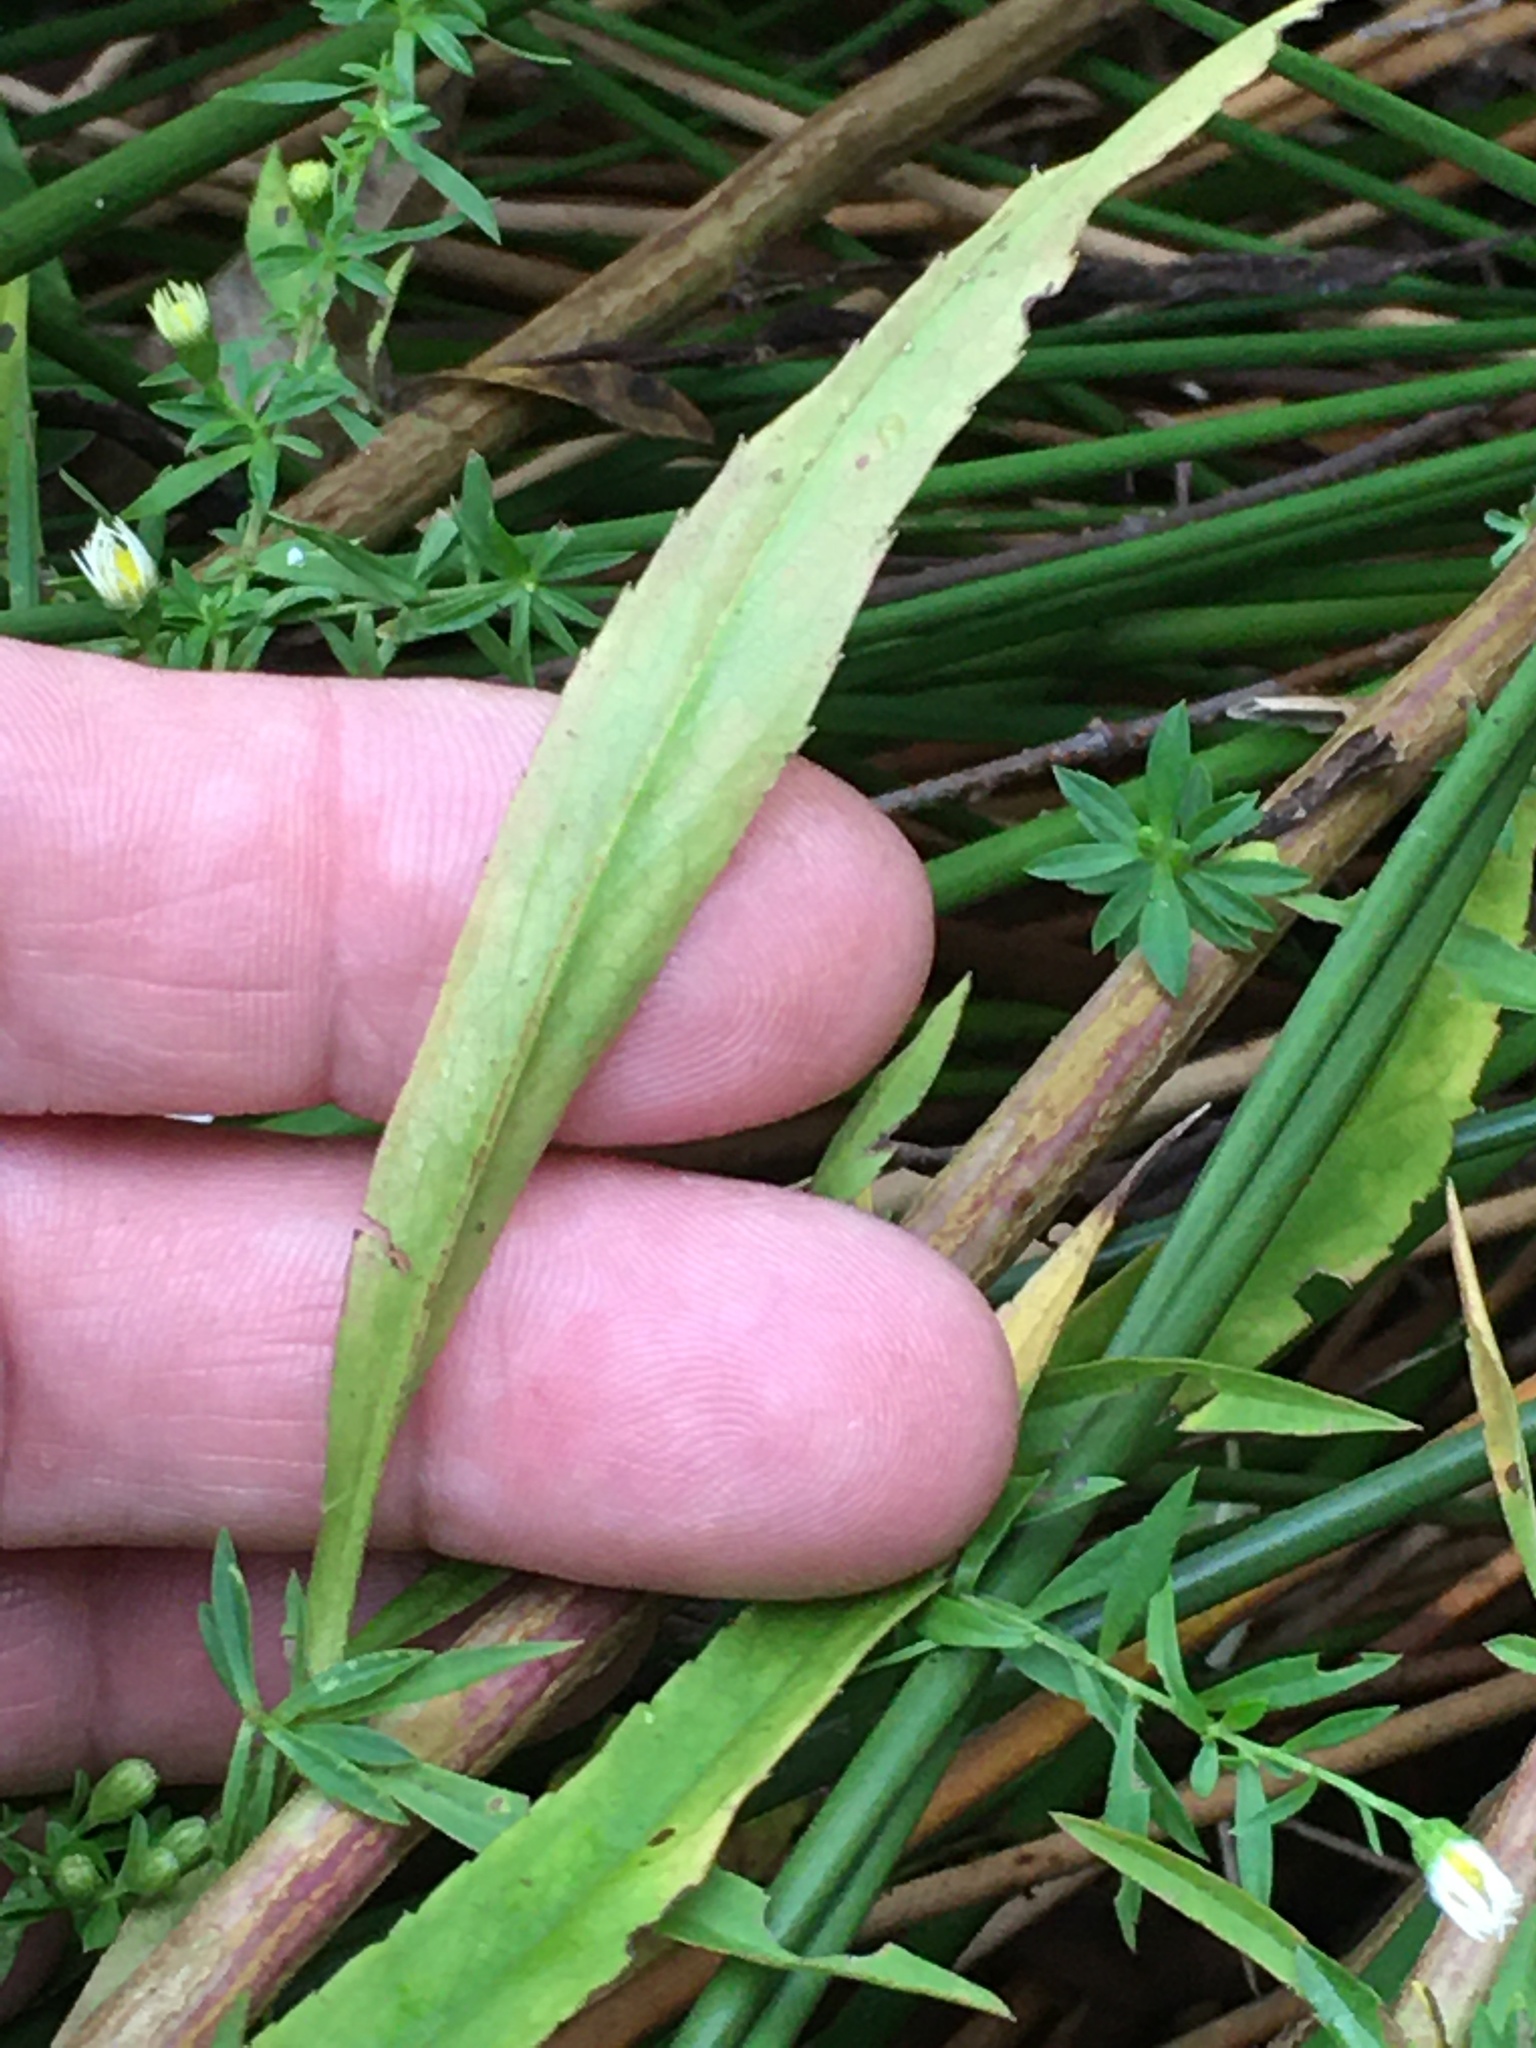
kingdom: Plantae
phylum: Tracheophyta
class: Magnoliopsida
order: Asterales
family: Asteraceae
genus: Symphyotrichum
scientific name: Symphyotrichum dumosum
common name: Bushy aster
